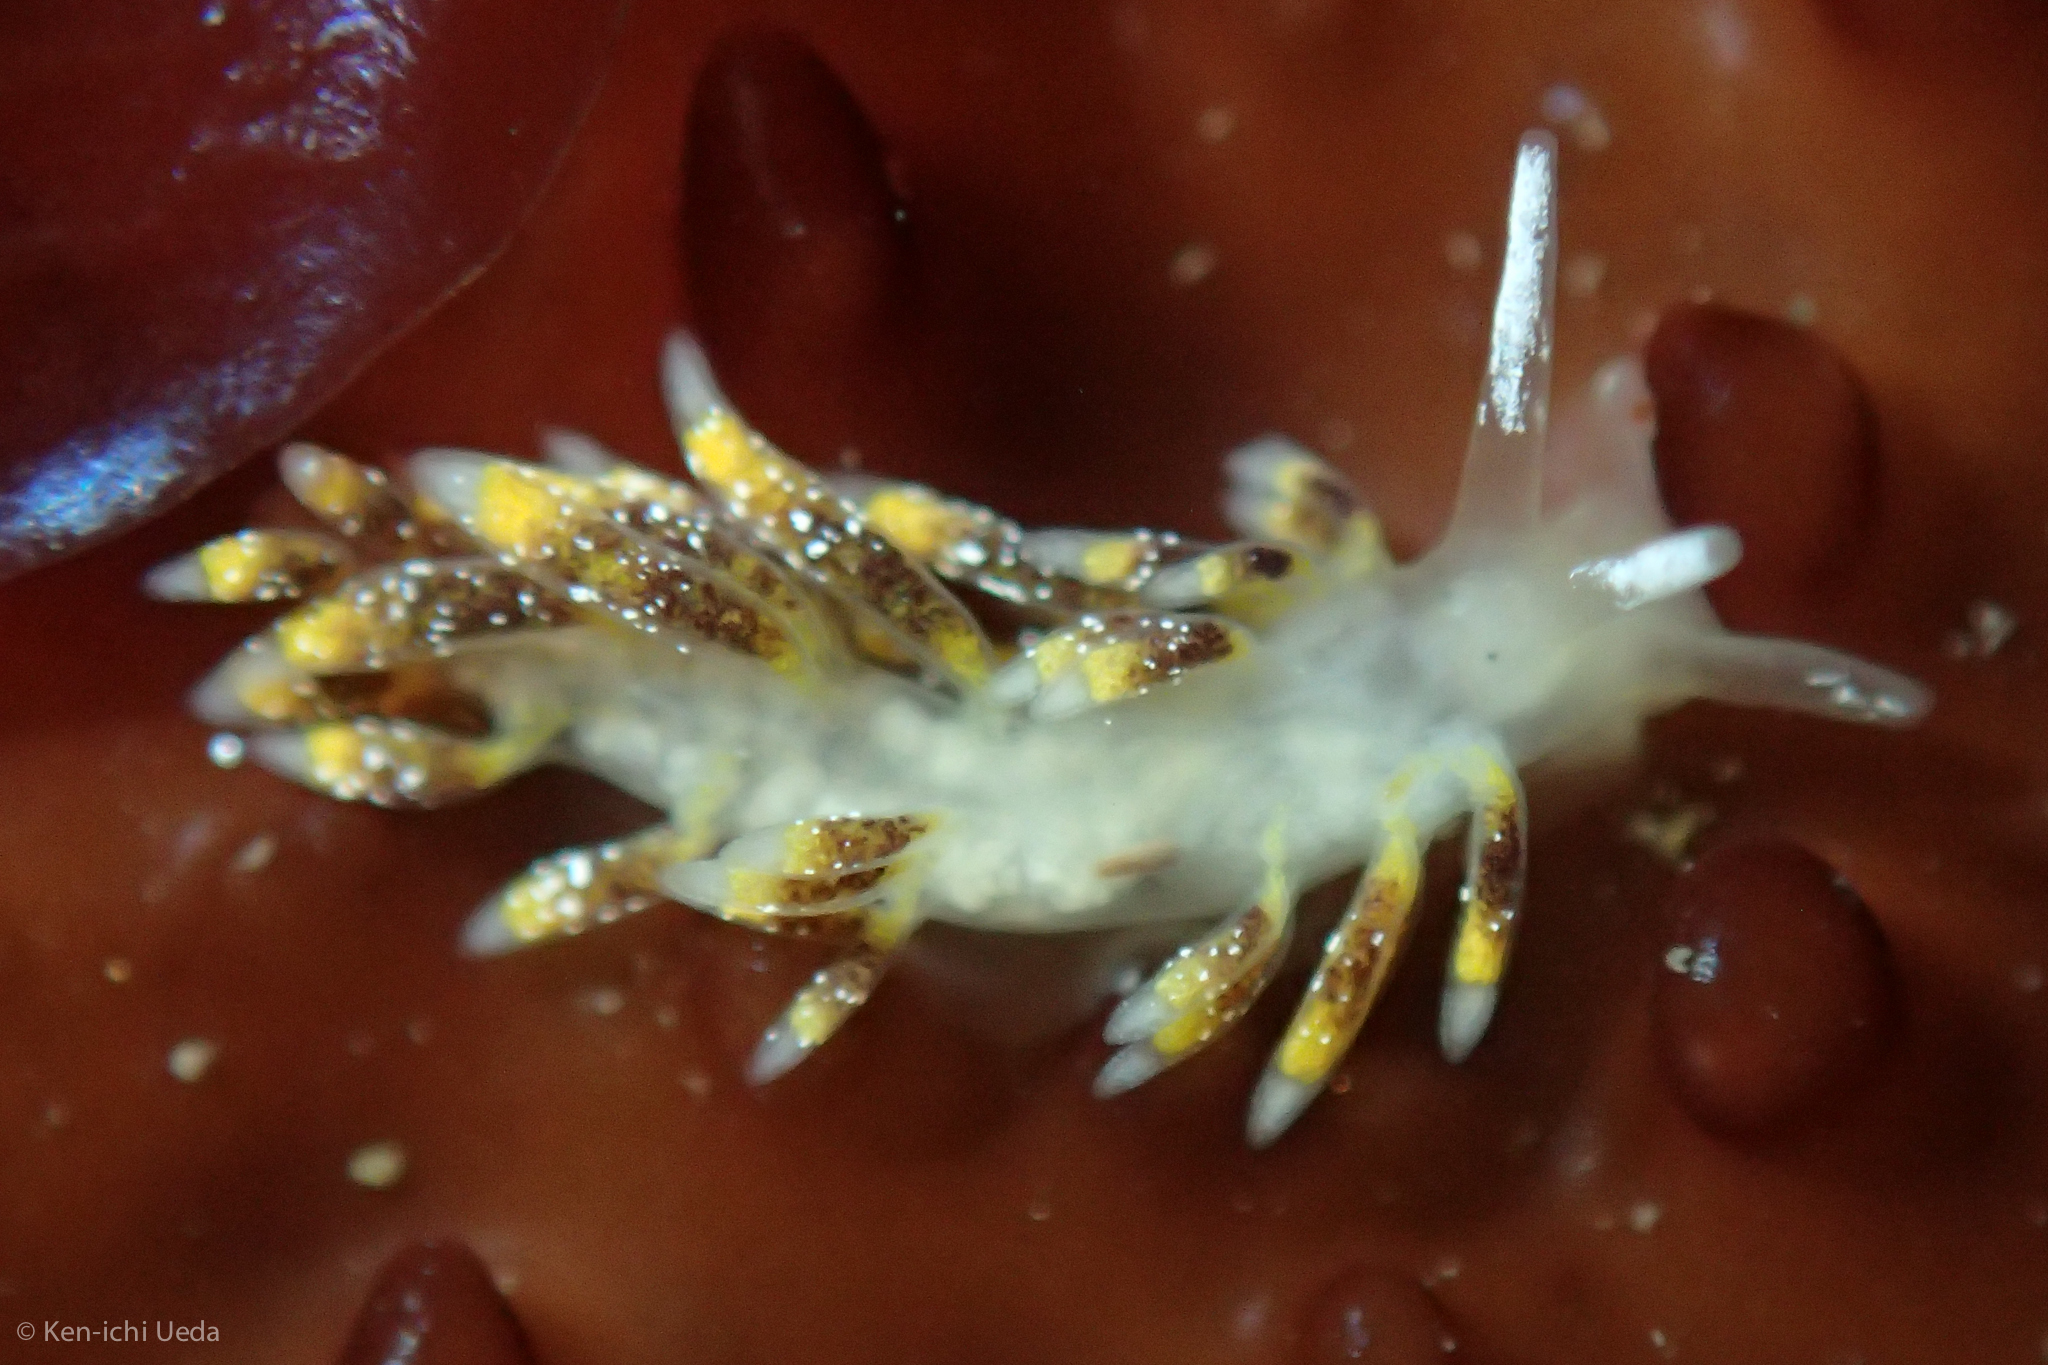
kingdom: Animalia
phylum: Mollusca
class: Gastropoda
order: Nudibranchia
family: Trinchesiidae
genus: Zelentia
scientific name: Zelentia fulgens
